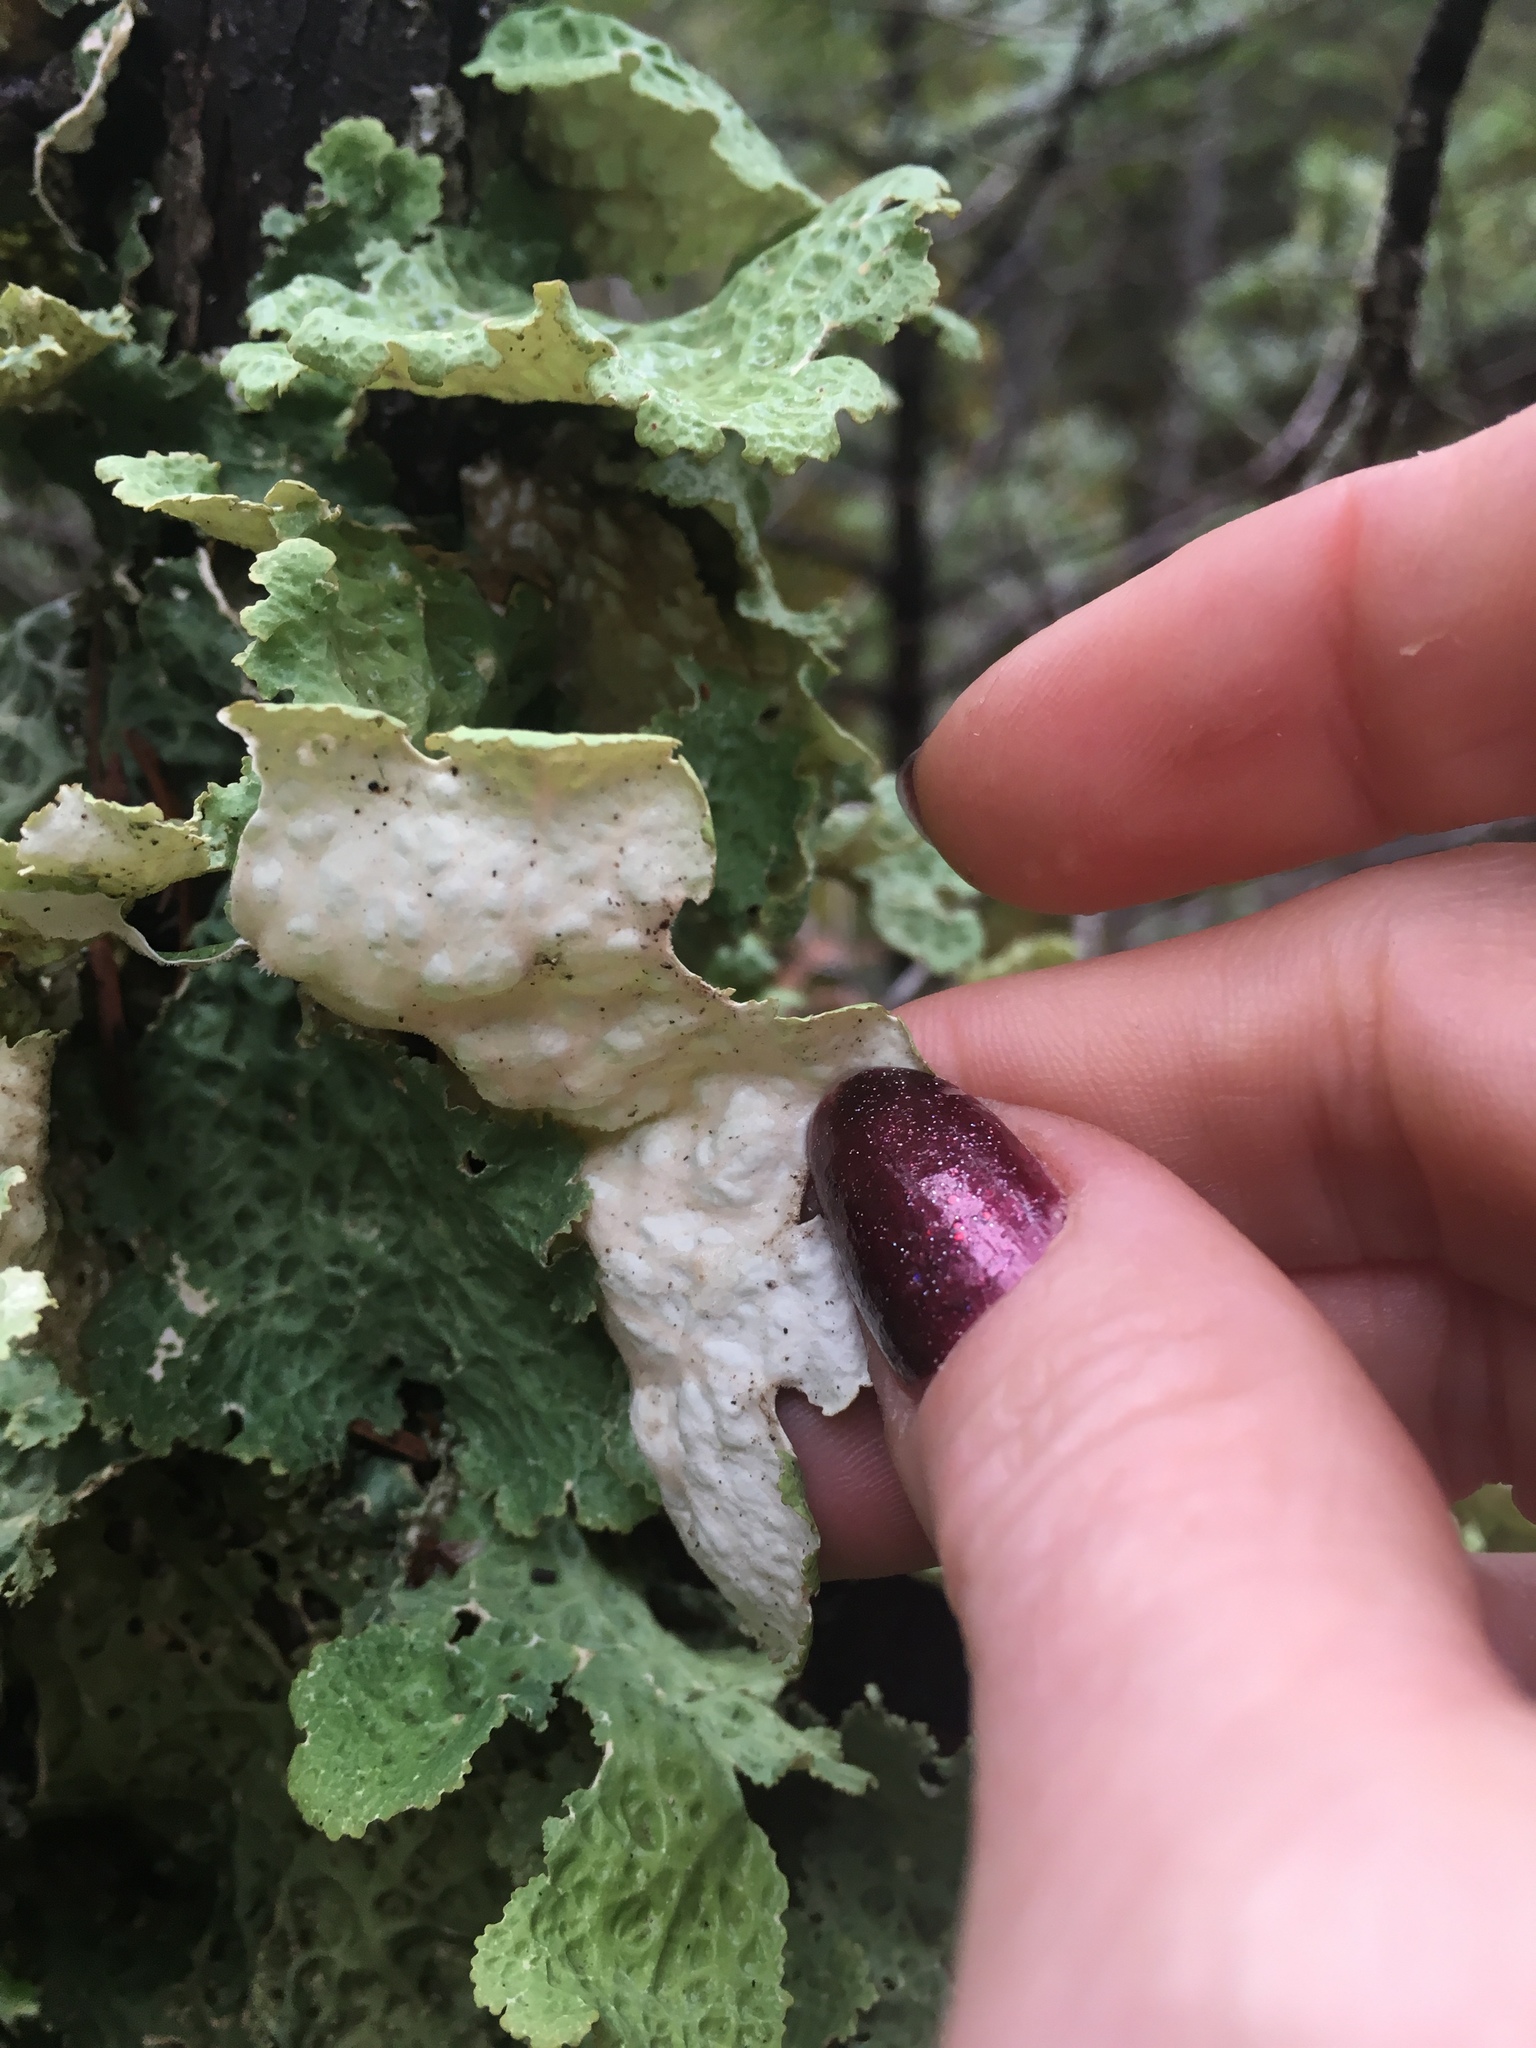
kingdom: Fungi
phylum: Ascomycota
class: Lecanoromycetes
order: Peltigerales
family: Lobariaceae
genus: Lobaria
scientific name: Lobaria oregana
